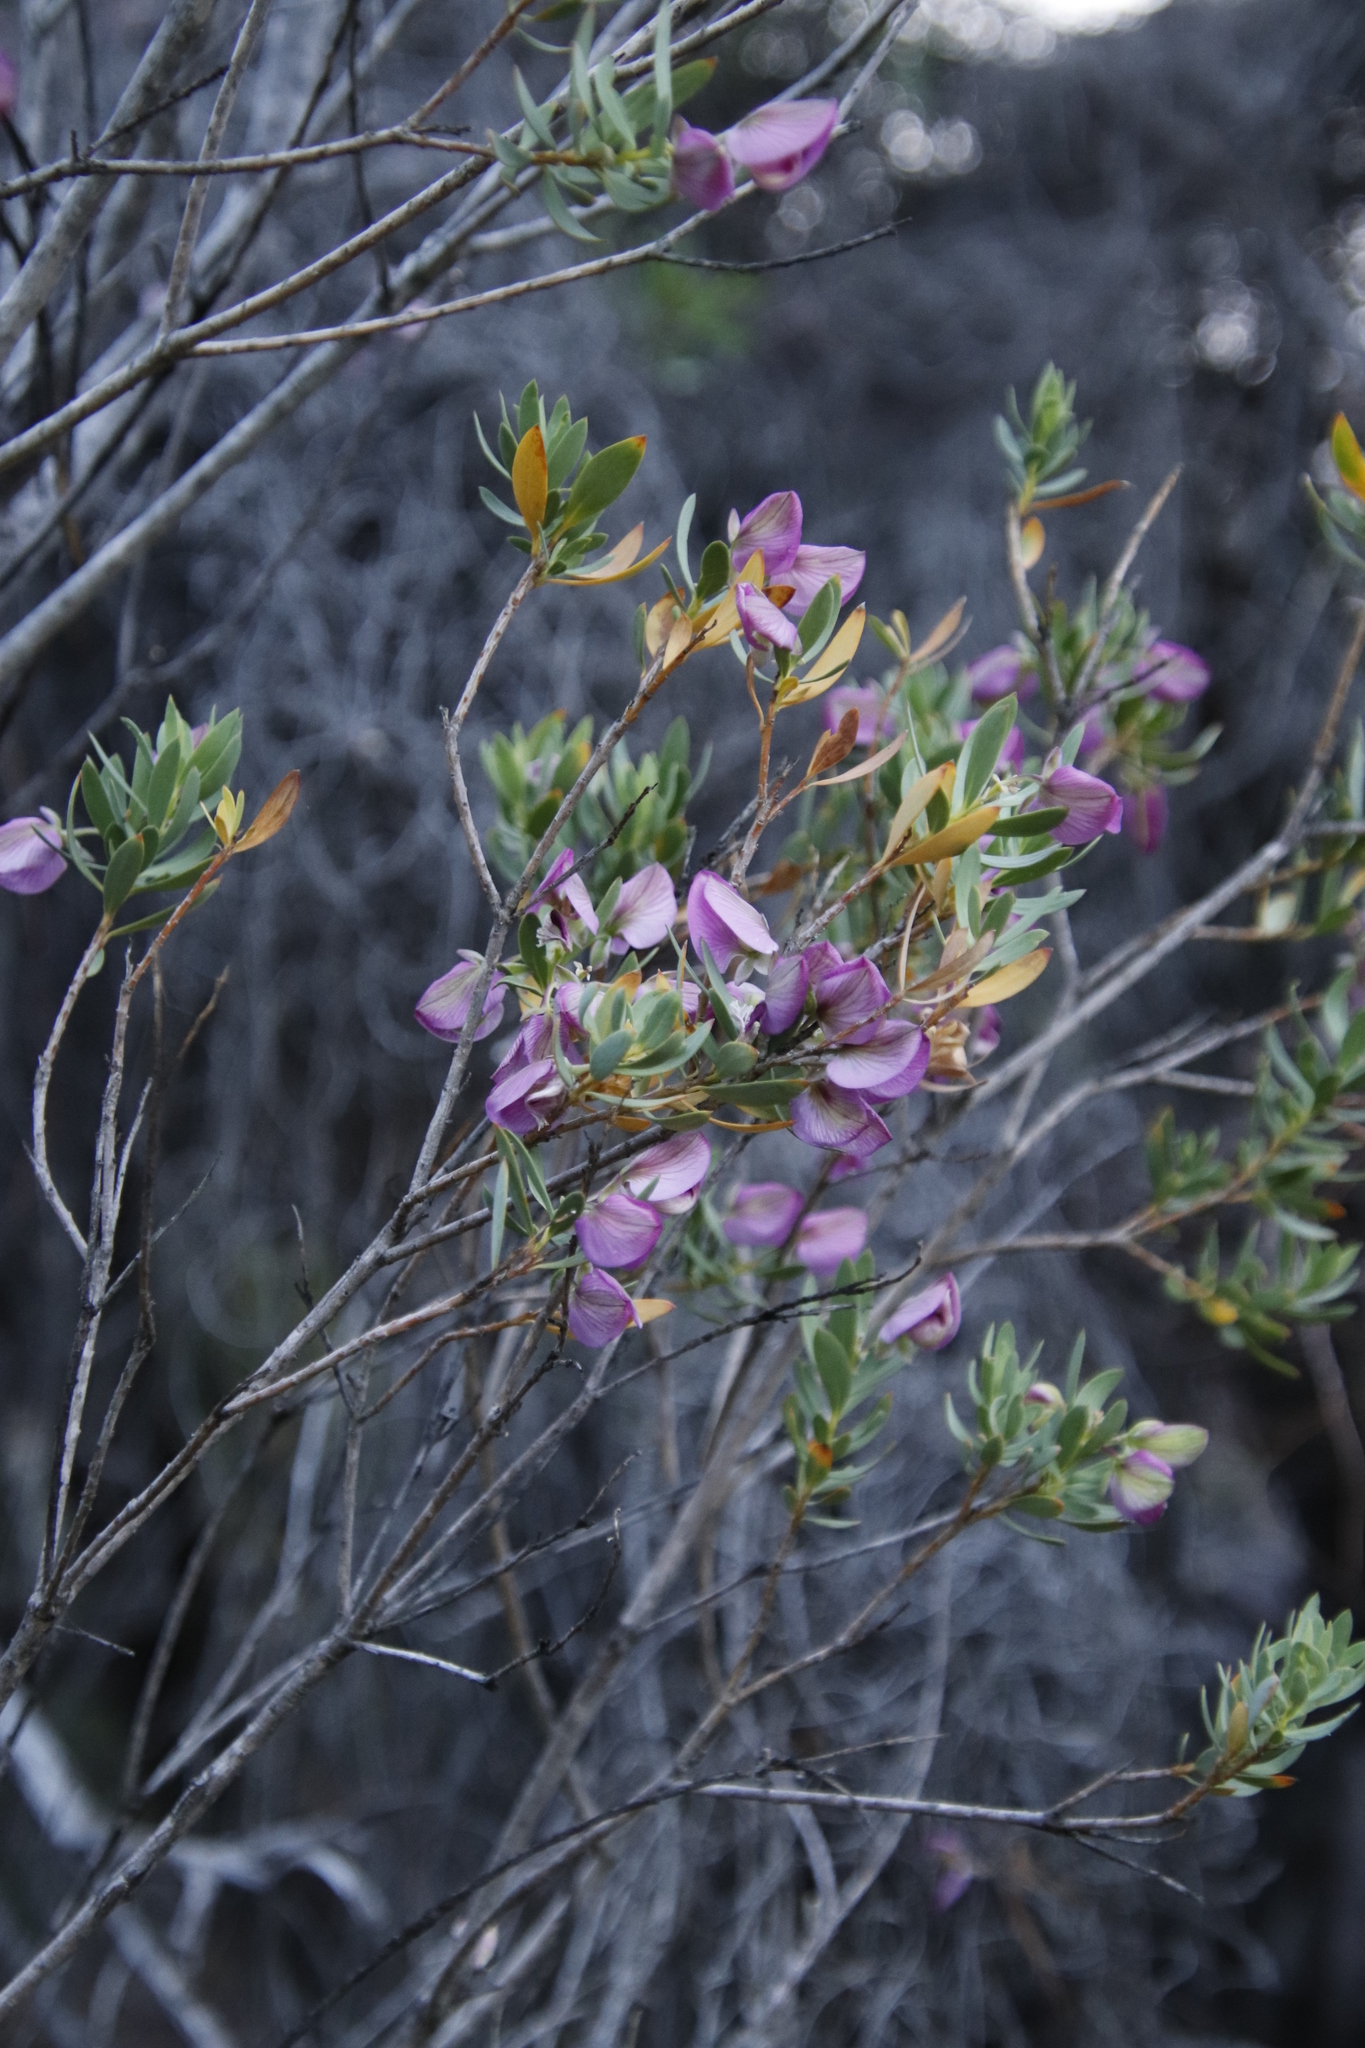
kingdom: Plantae
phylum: Tracheophyta
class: Magnoliopsida
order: Fabales
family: Polygalaceae
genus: Polygala
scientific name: Polygala myrtifolia
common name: Myrtle-leaf milkwort
